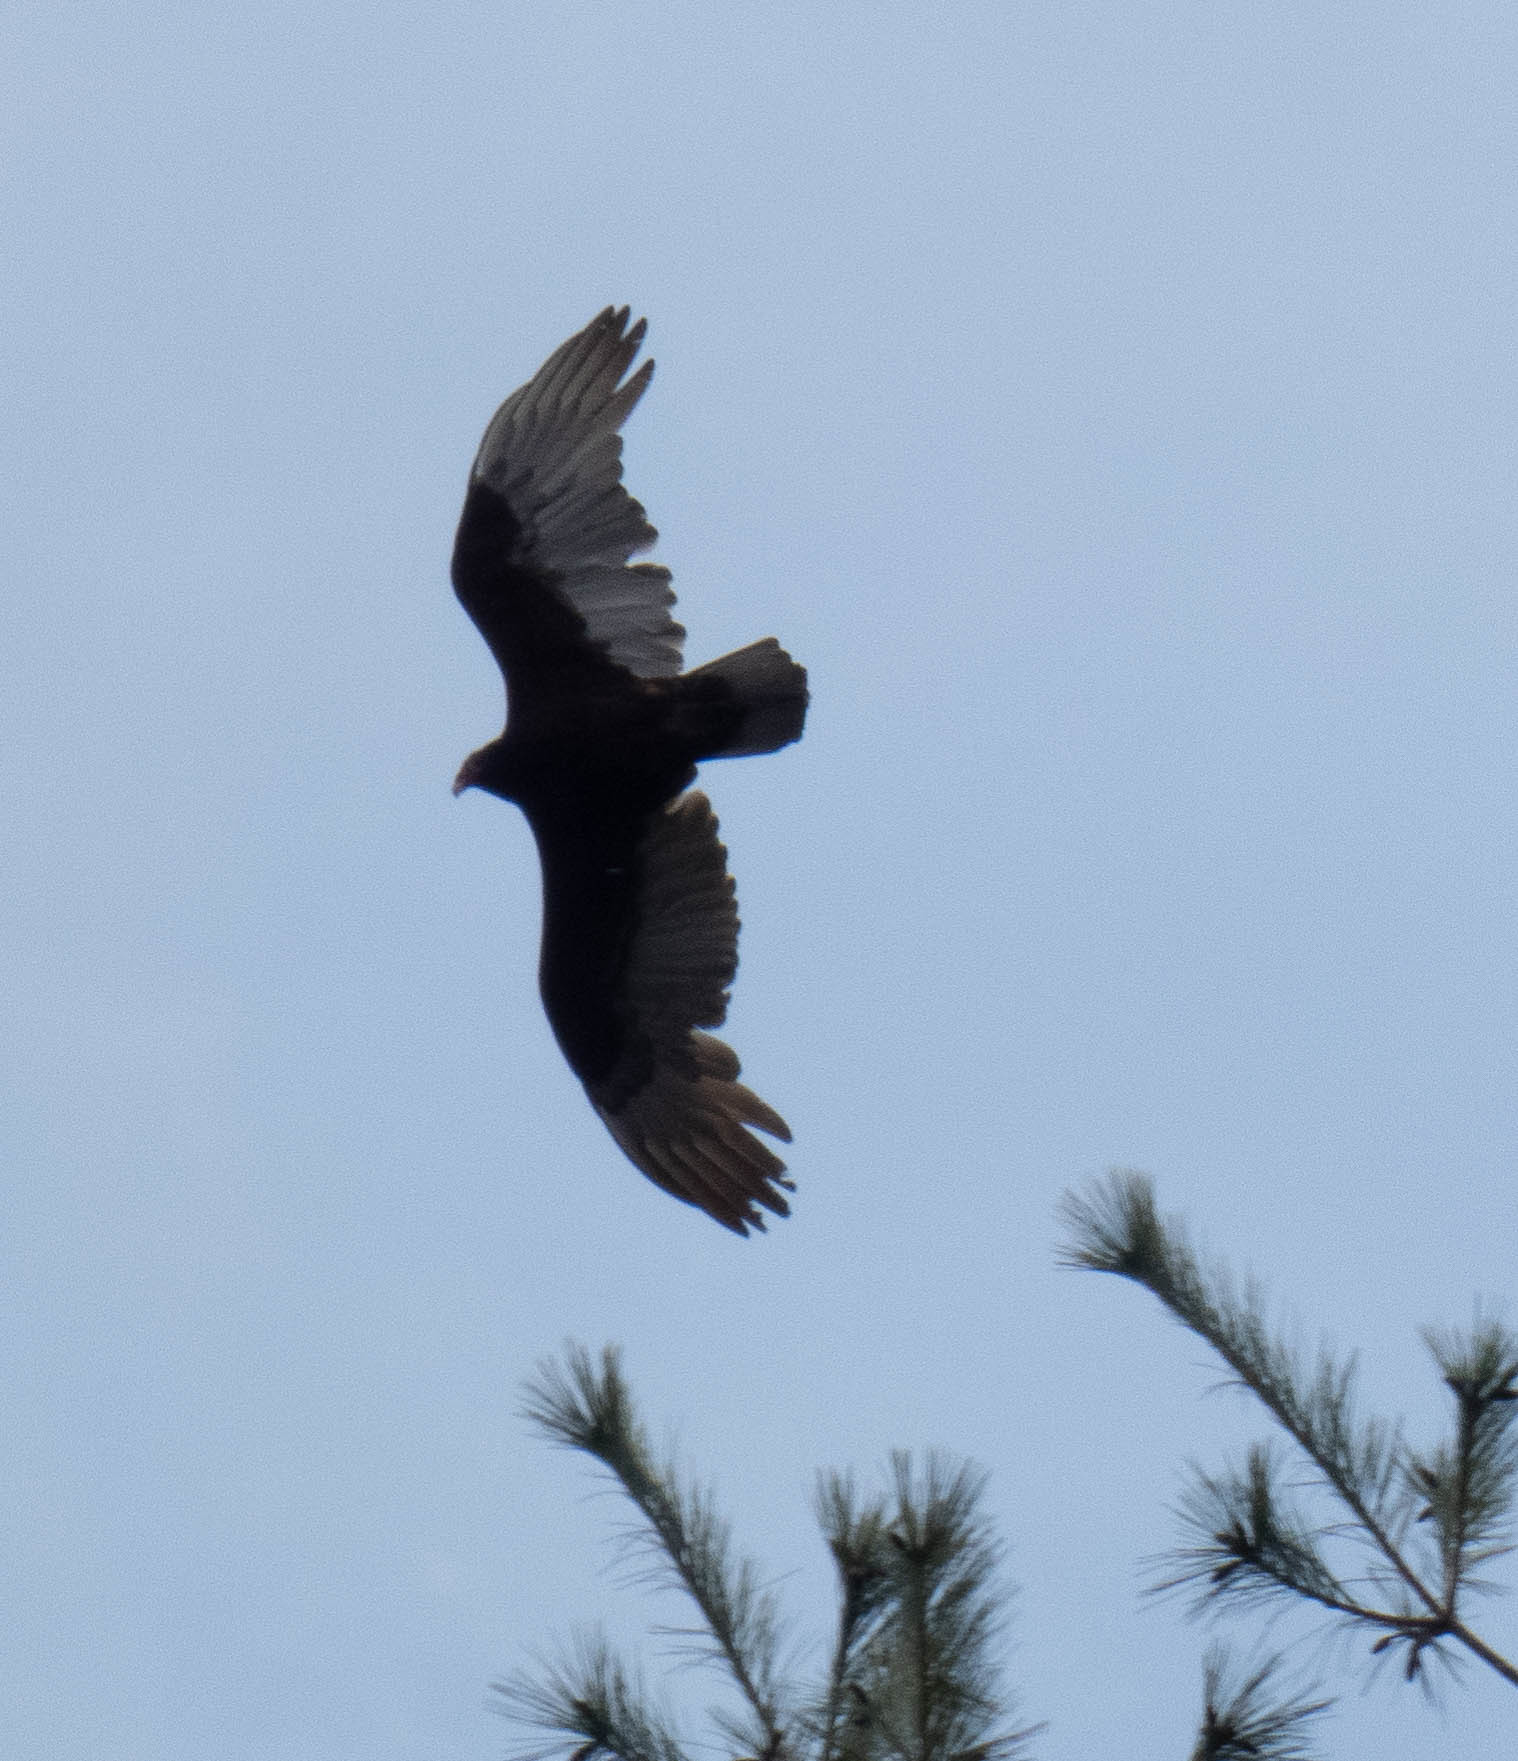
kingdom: Animalia
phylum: Chordata
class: Aves
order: Accipitriformes
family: Cathartidae
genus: Cathartes
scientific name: Cathartes aura
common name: Turkey vulture
